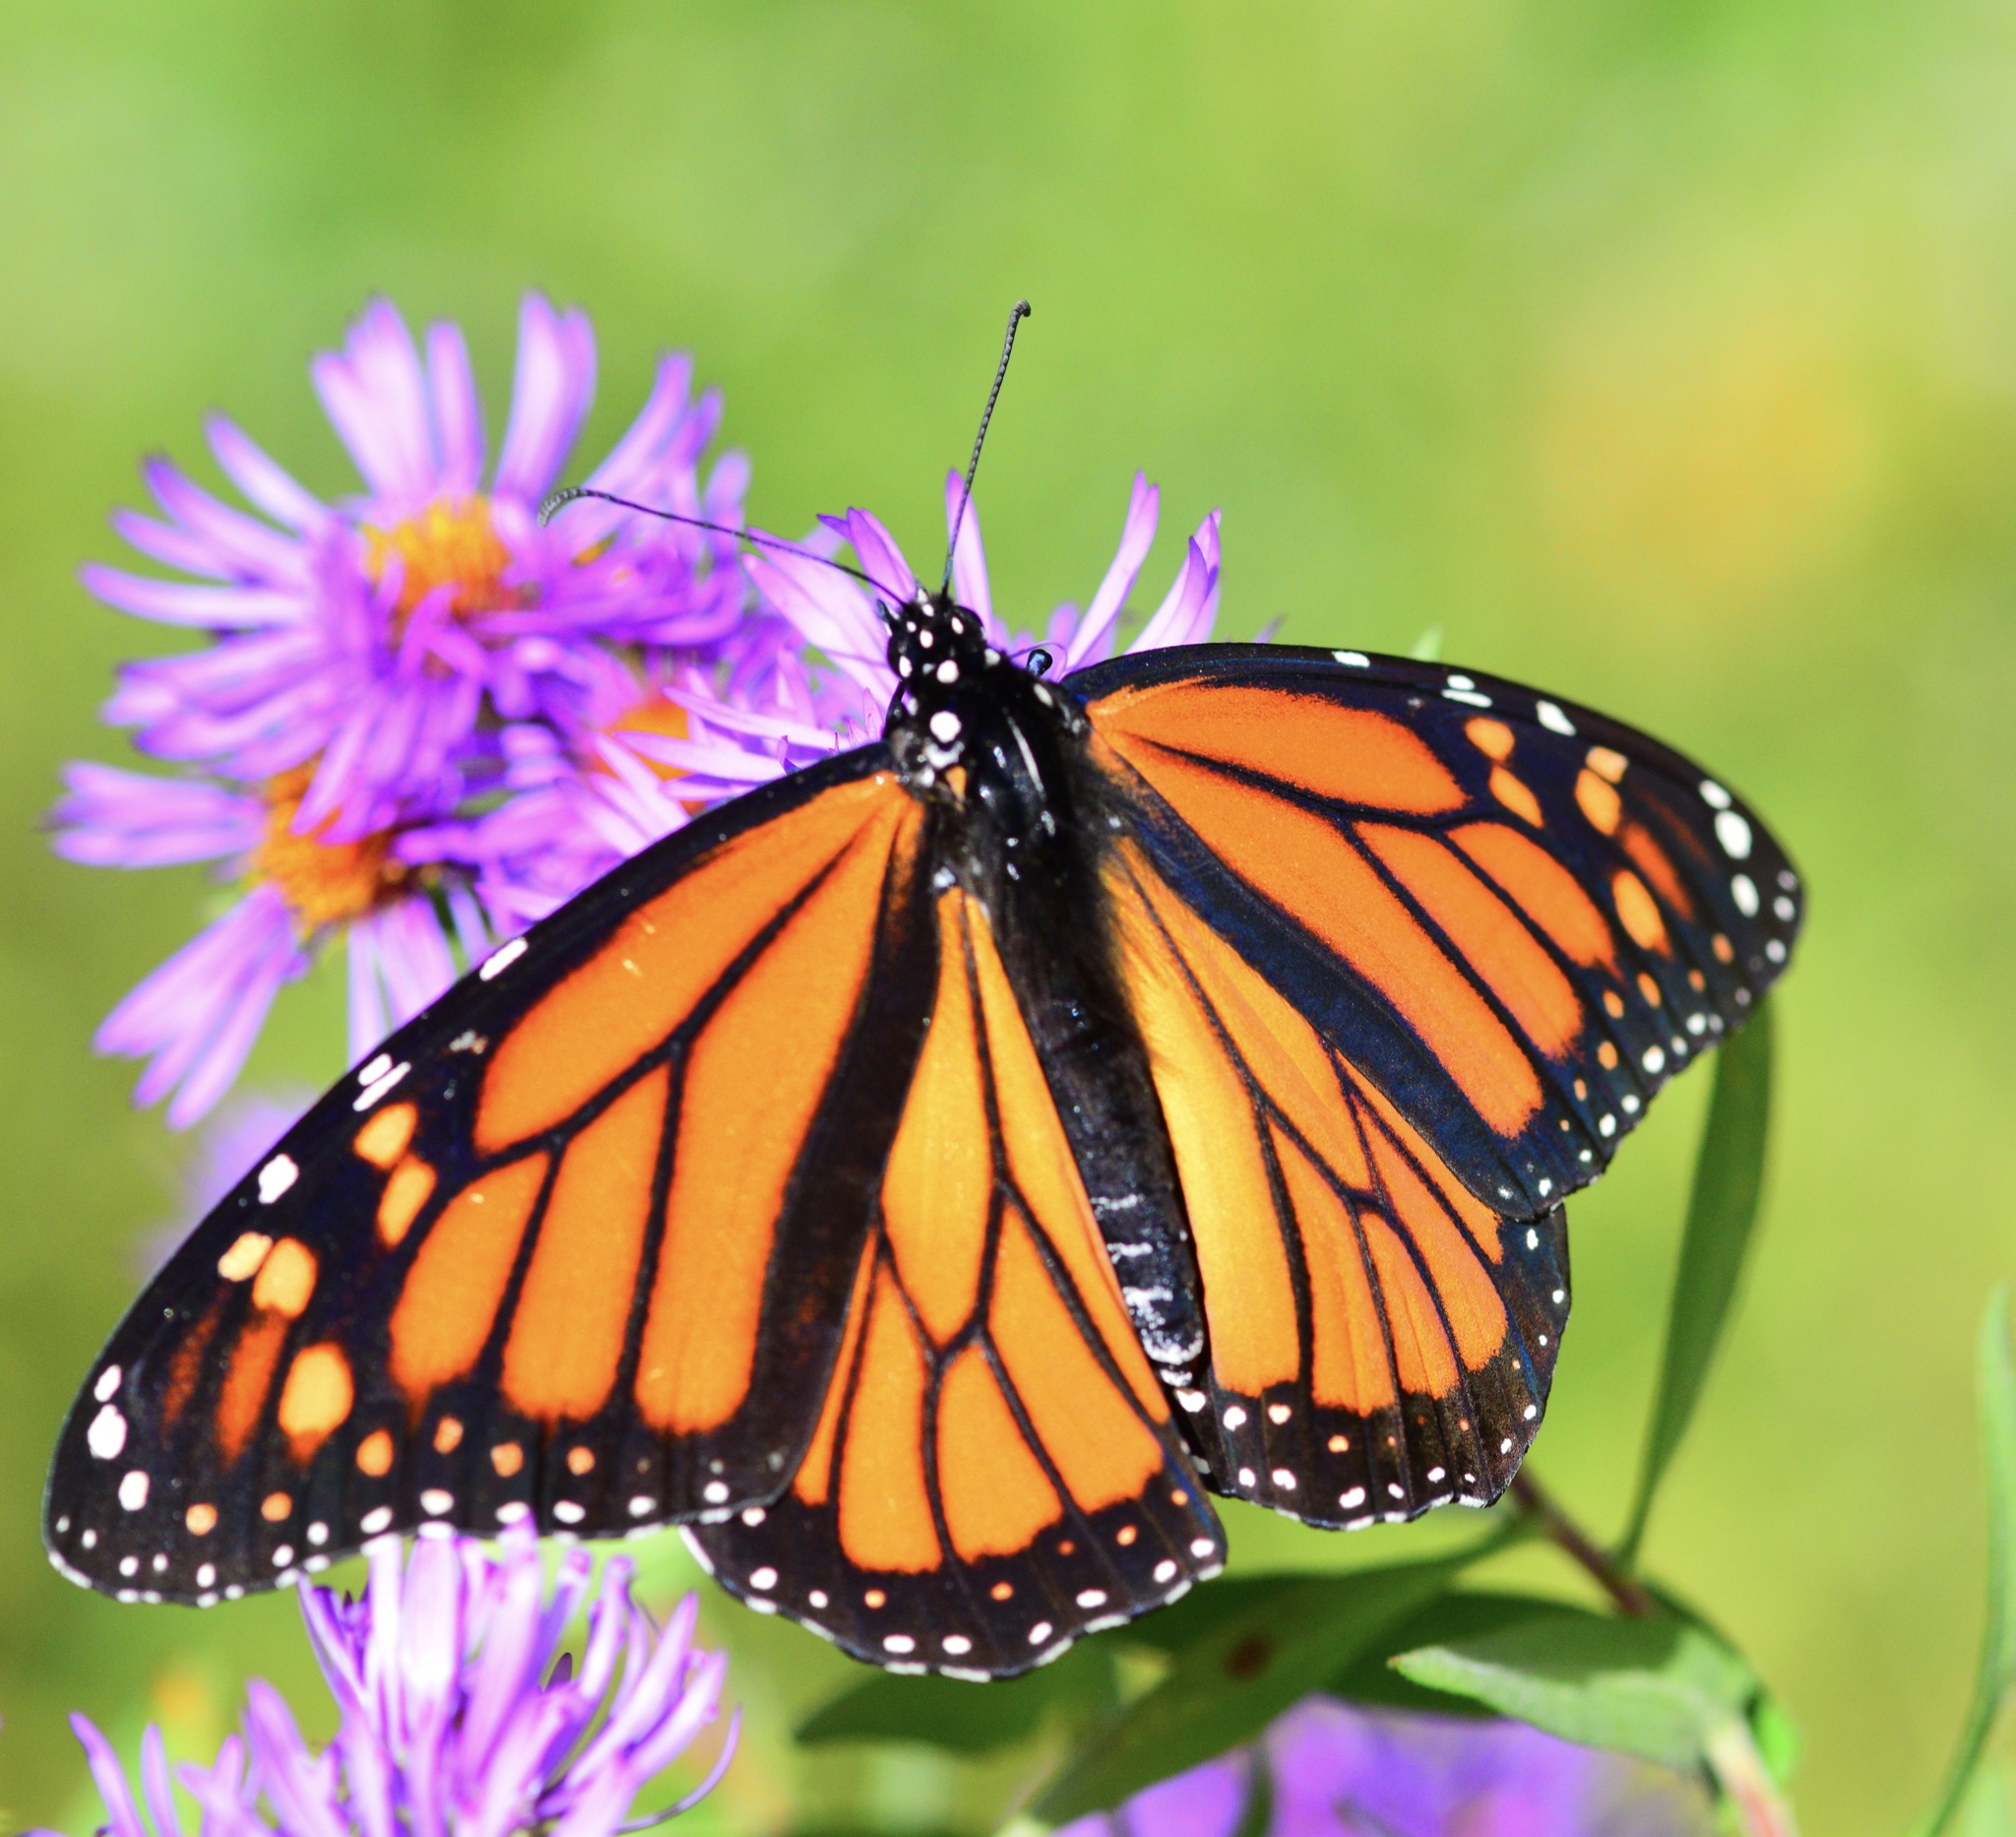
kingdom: Animalia
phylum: Arthropoda
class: Insecta
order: Lepidoptera
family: Nymphalidae
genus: Danaus
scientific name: Danaus plexippus
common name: Monarch
